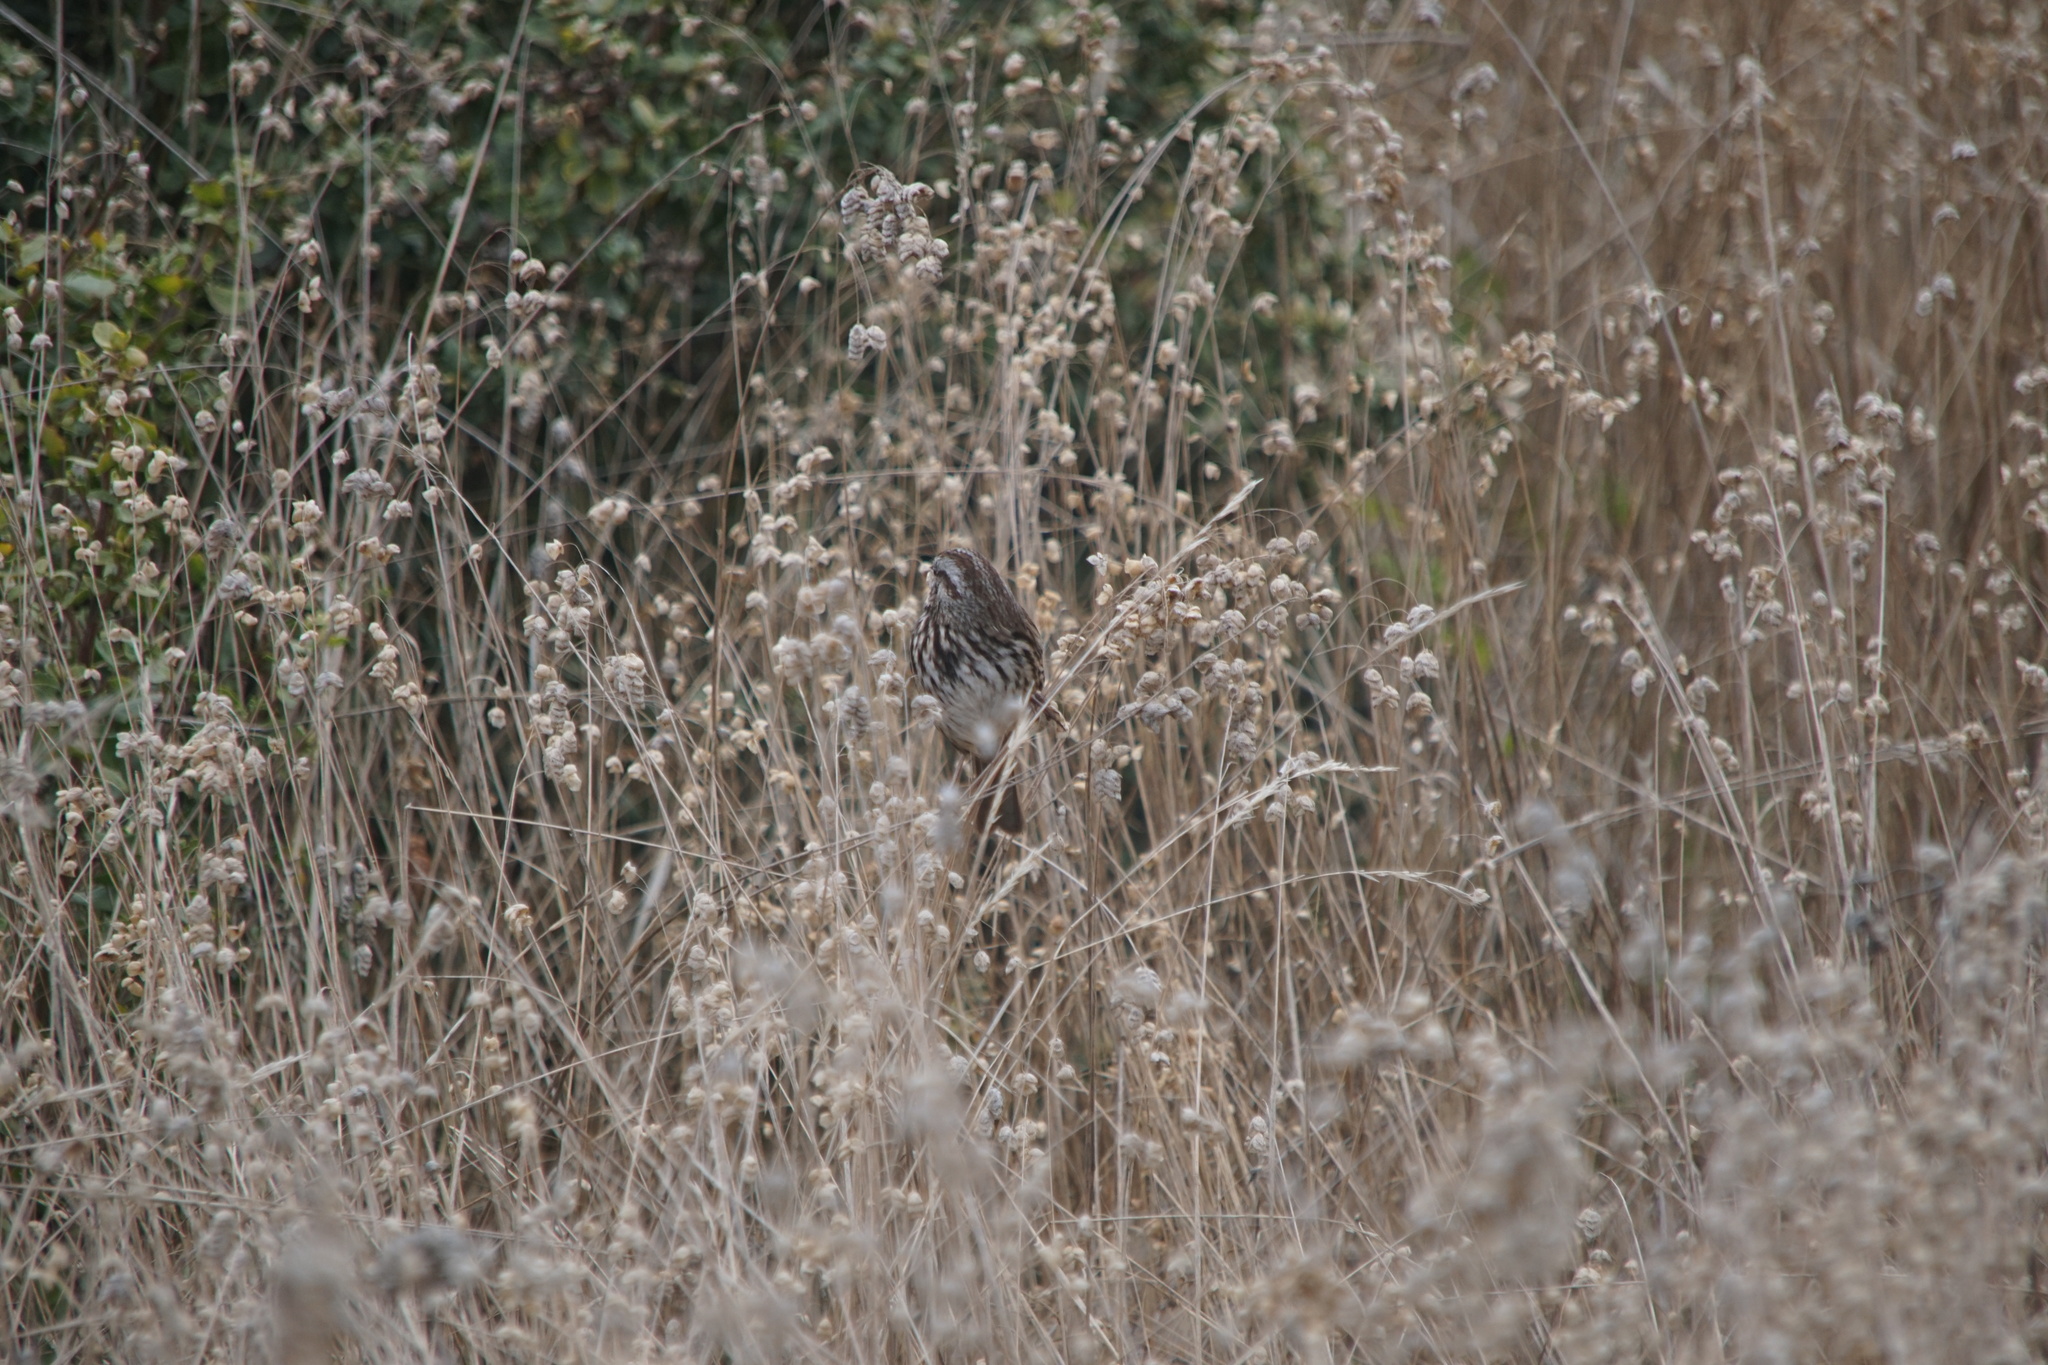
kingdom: Animalia
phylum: Chordata
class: Aves
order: Passeriformes
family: Passerellidae
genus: Melospiza
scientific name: Melospiza melodia
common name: Song sparrow
